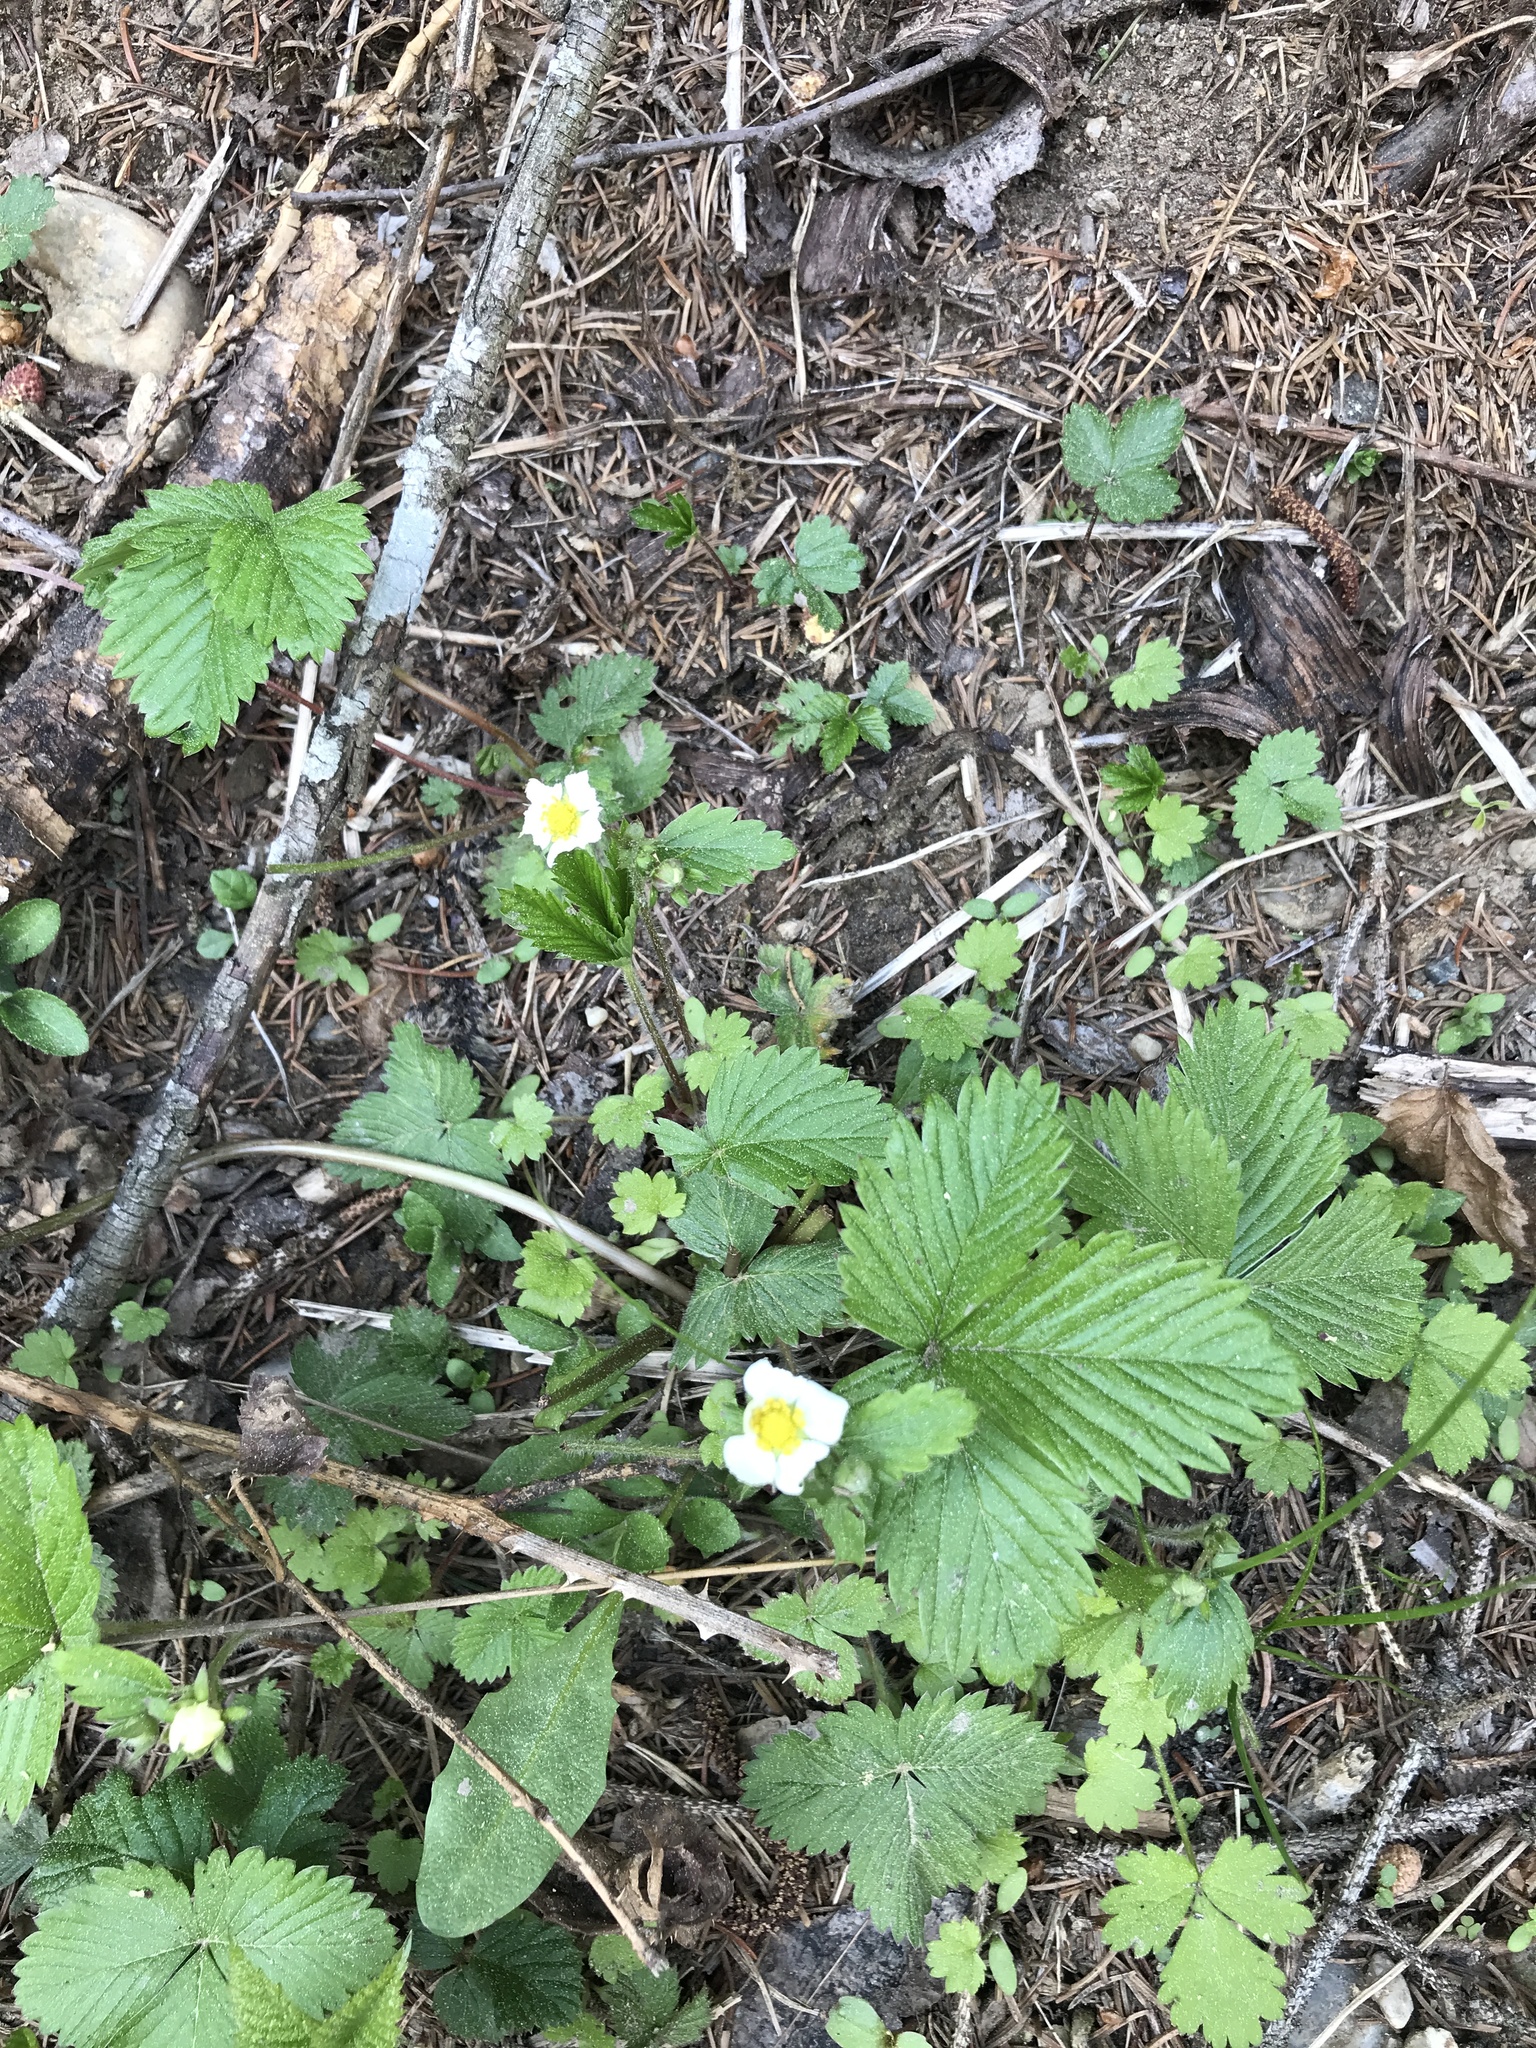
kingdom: Plantae
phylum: Tracheophyta
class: Magnoliopsida
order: Rosales
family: Rosaceae
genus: Fragaria
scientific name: Fragaria vesca
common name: Wild strawberry
